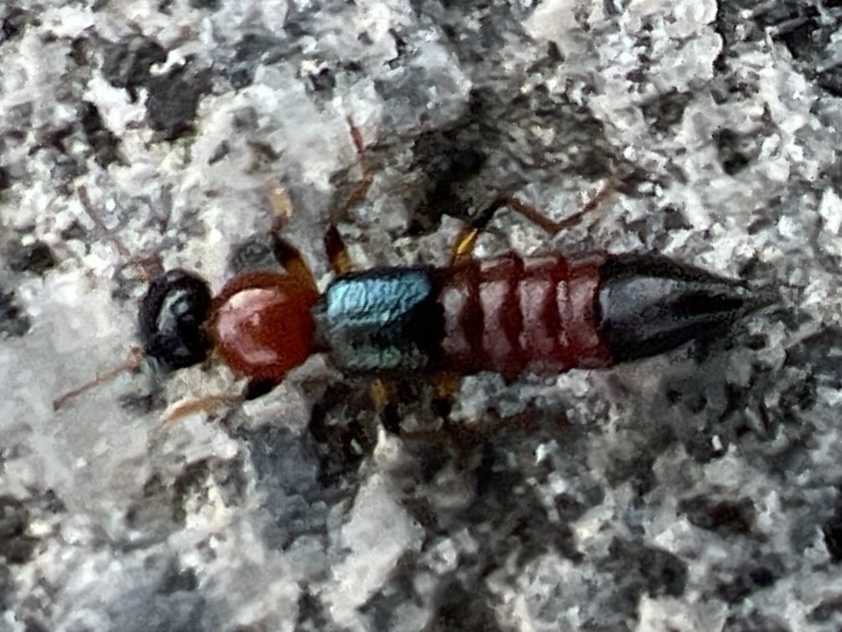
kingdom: Animalia
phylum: Arthropoda
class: Insecta
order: Coleoptera
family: Staphylinidae
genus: Paederus
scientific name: Paederus littoralis
